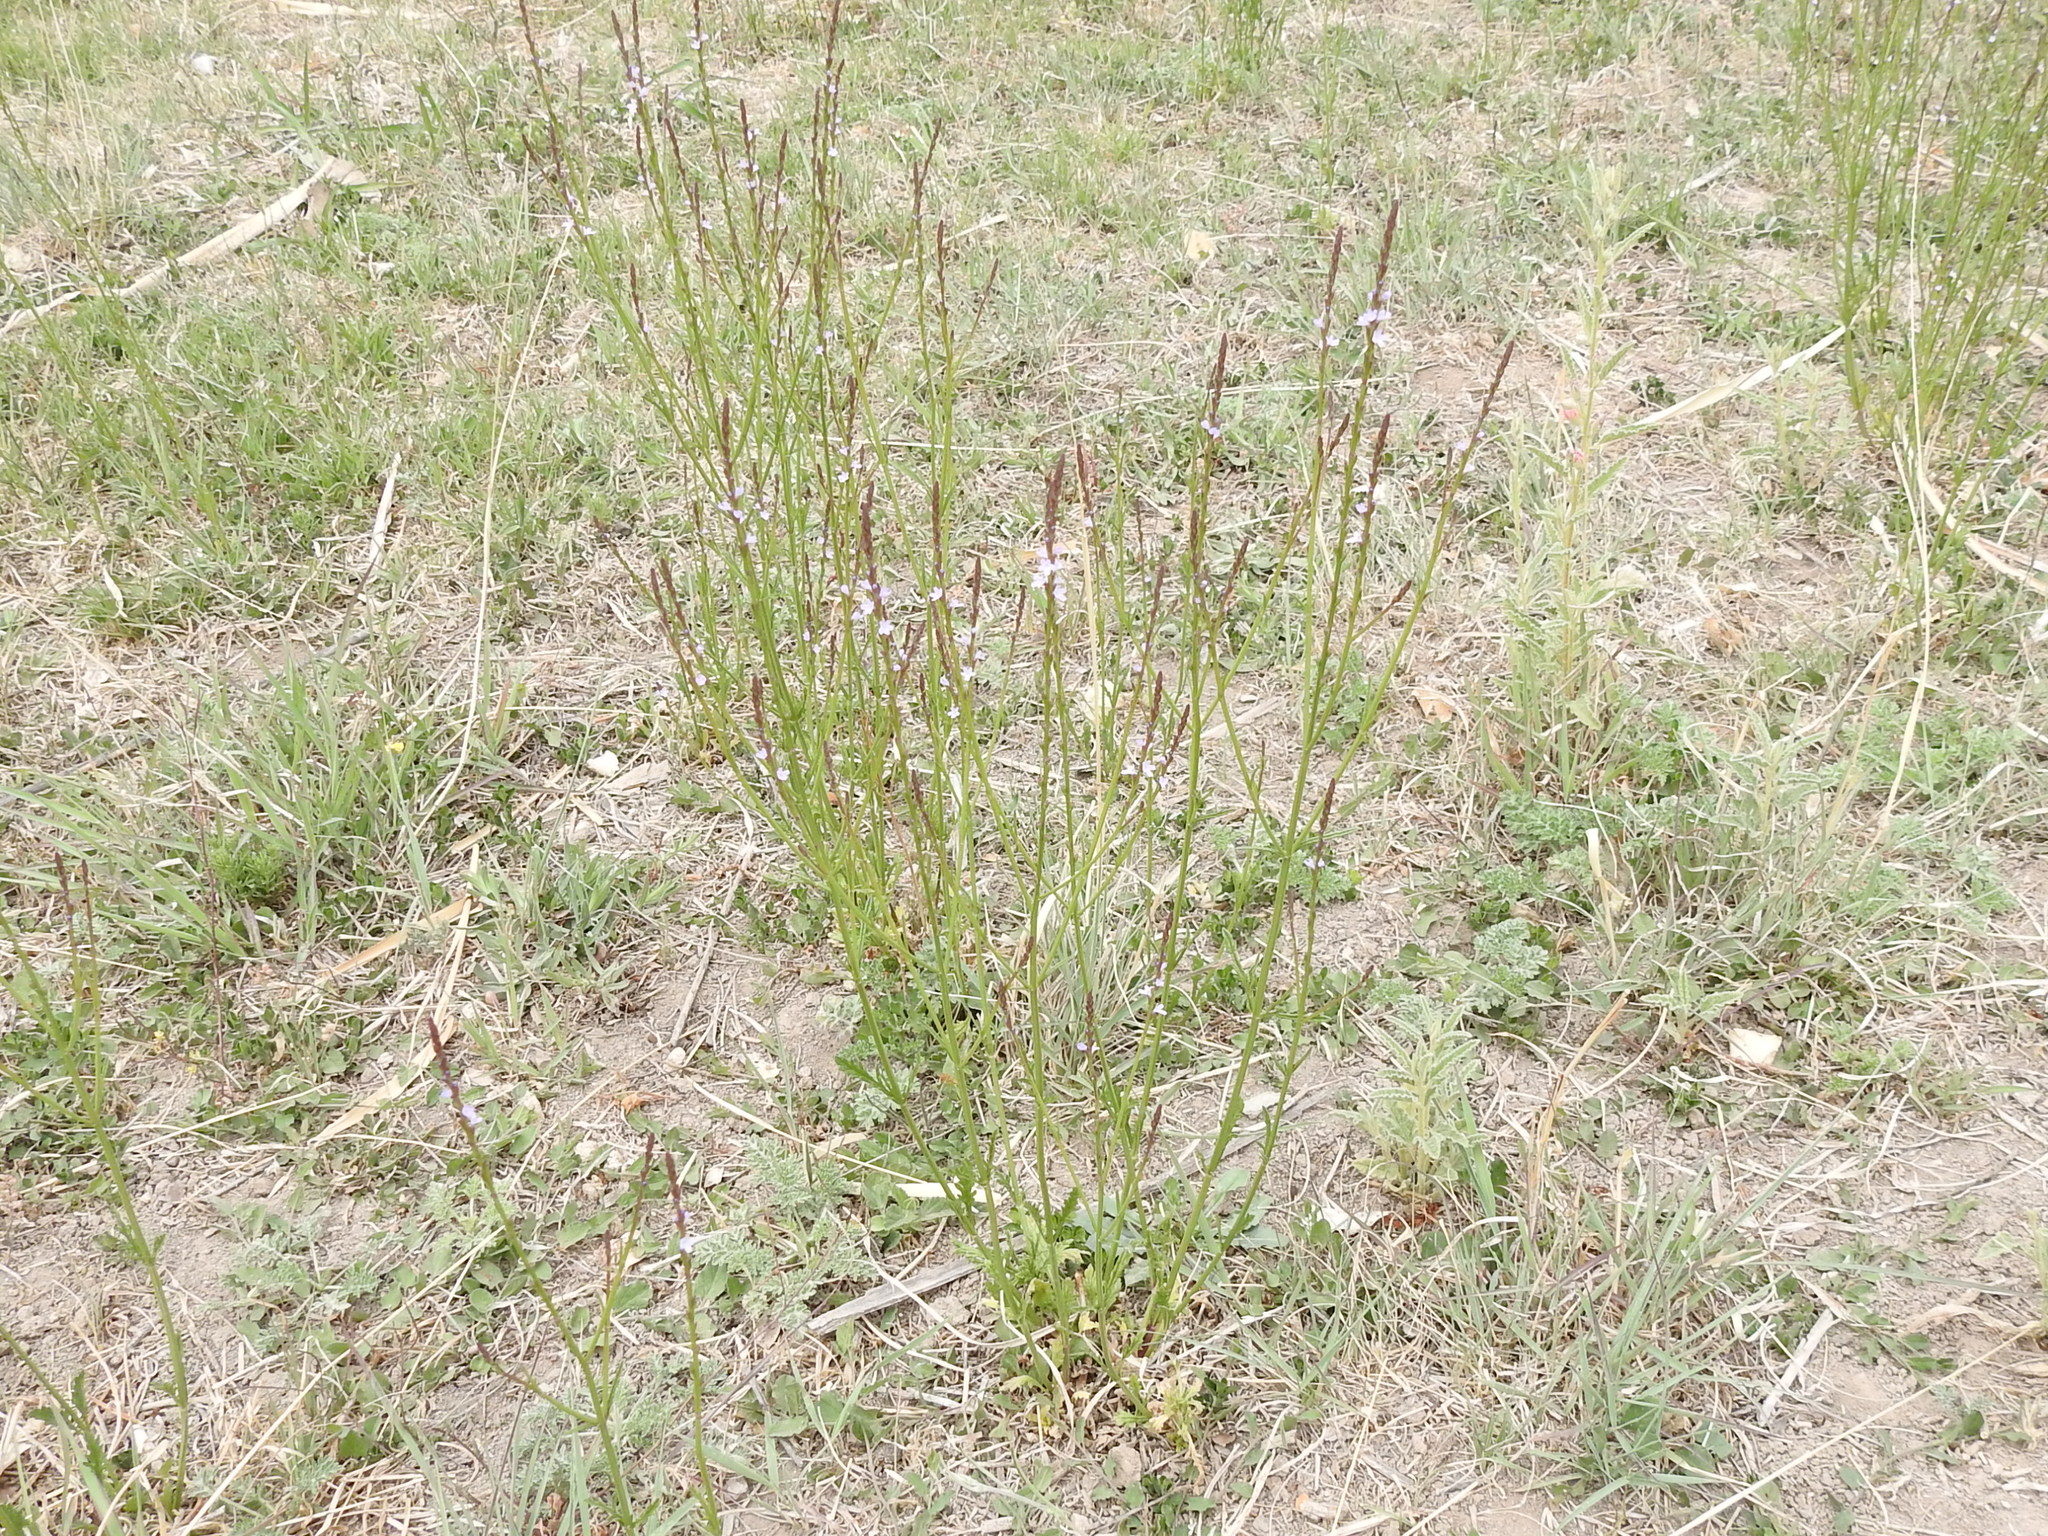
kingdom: Plantae
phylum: Tracheophyta
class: Magnoliopsida
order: Lamiales
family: Verbenaceae
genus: Verbena
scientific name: Verbena halei
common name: Texas vervain
